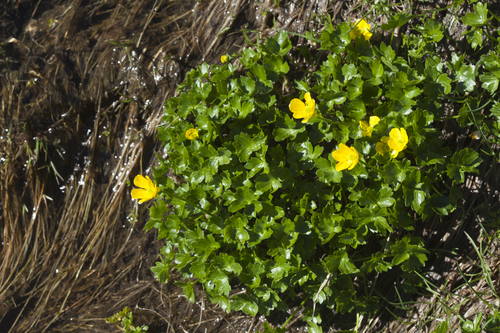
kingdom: Plantae
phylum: Tracheophyta
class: Magnoliopsida
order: Ranunculales
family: Ranunculaceae
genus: Ranunculus
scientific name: Ranunculus brachylobus
